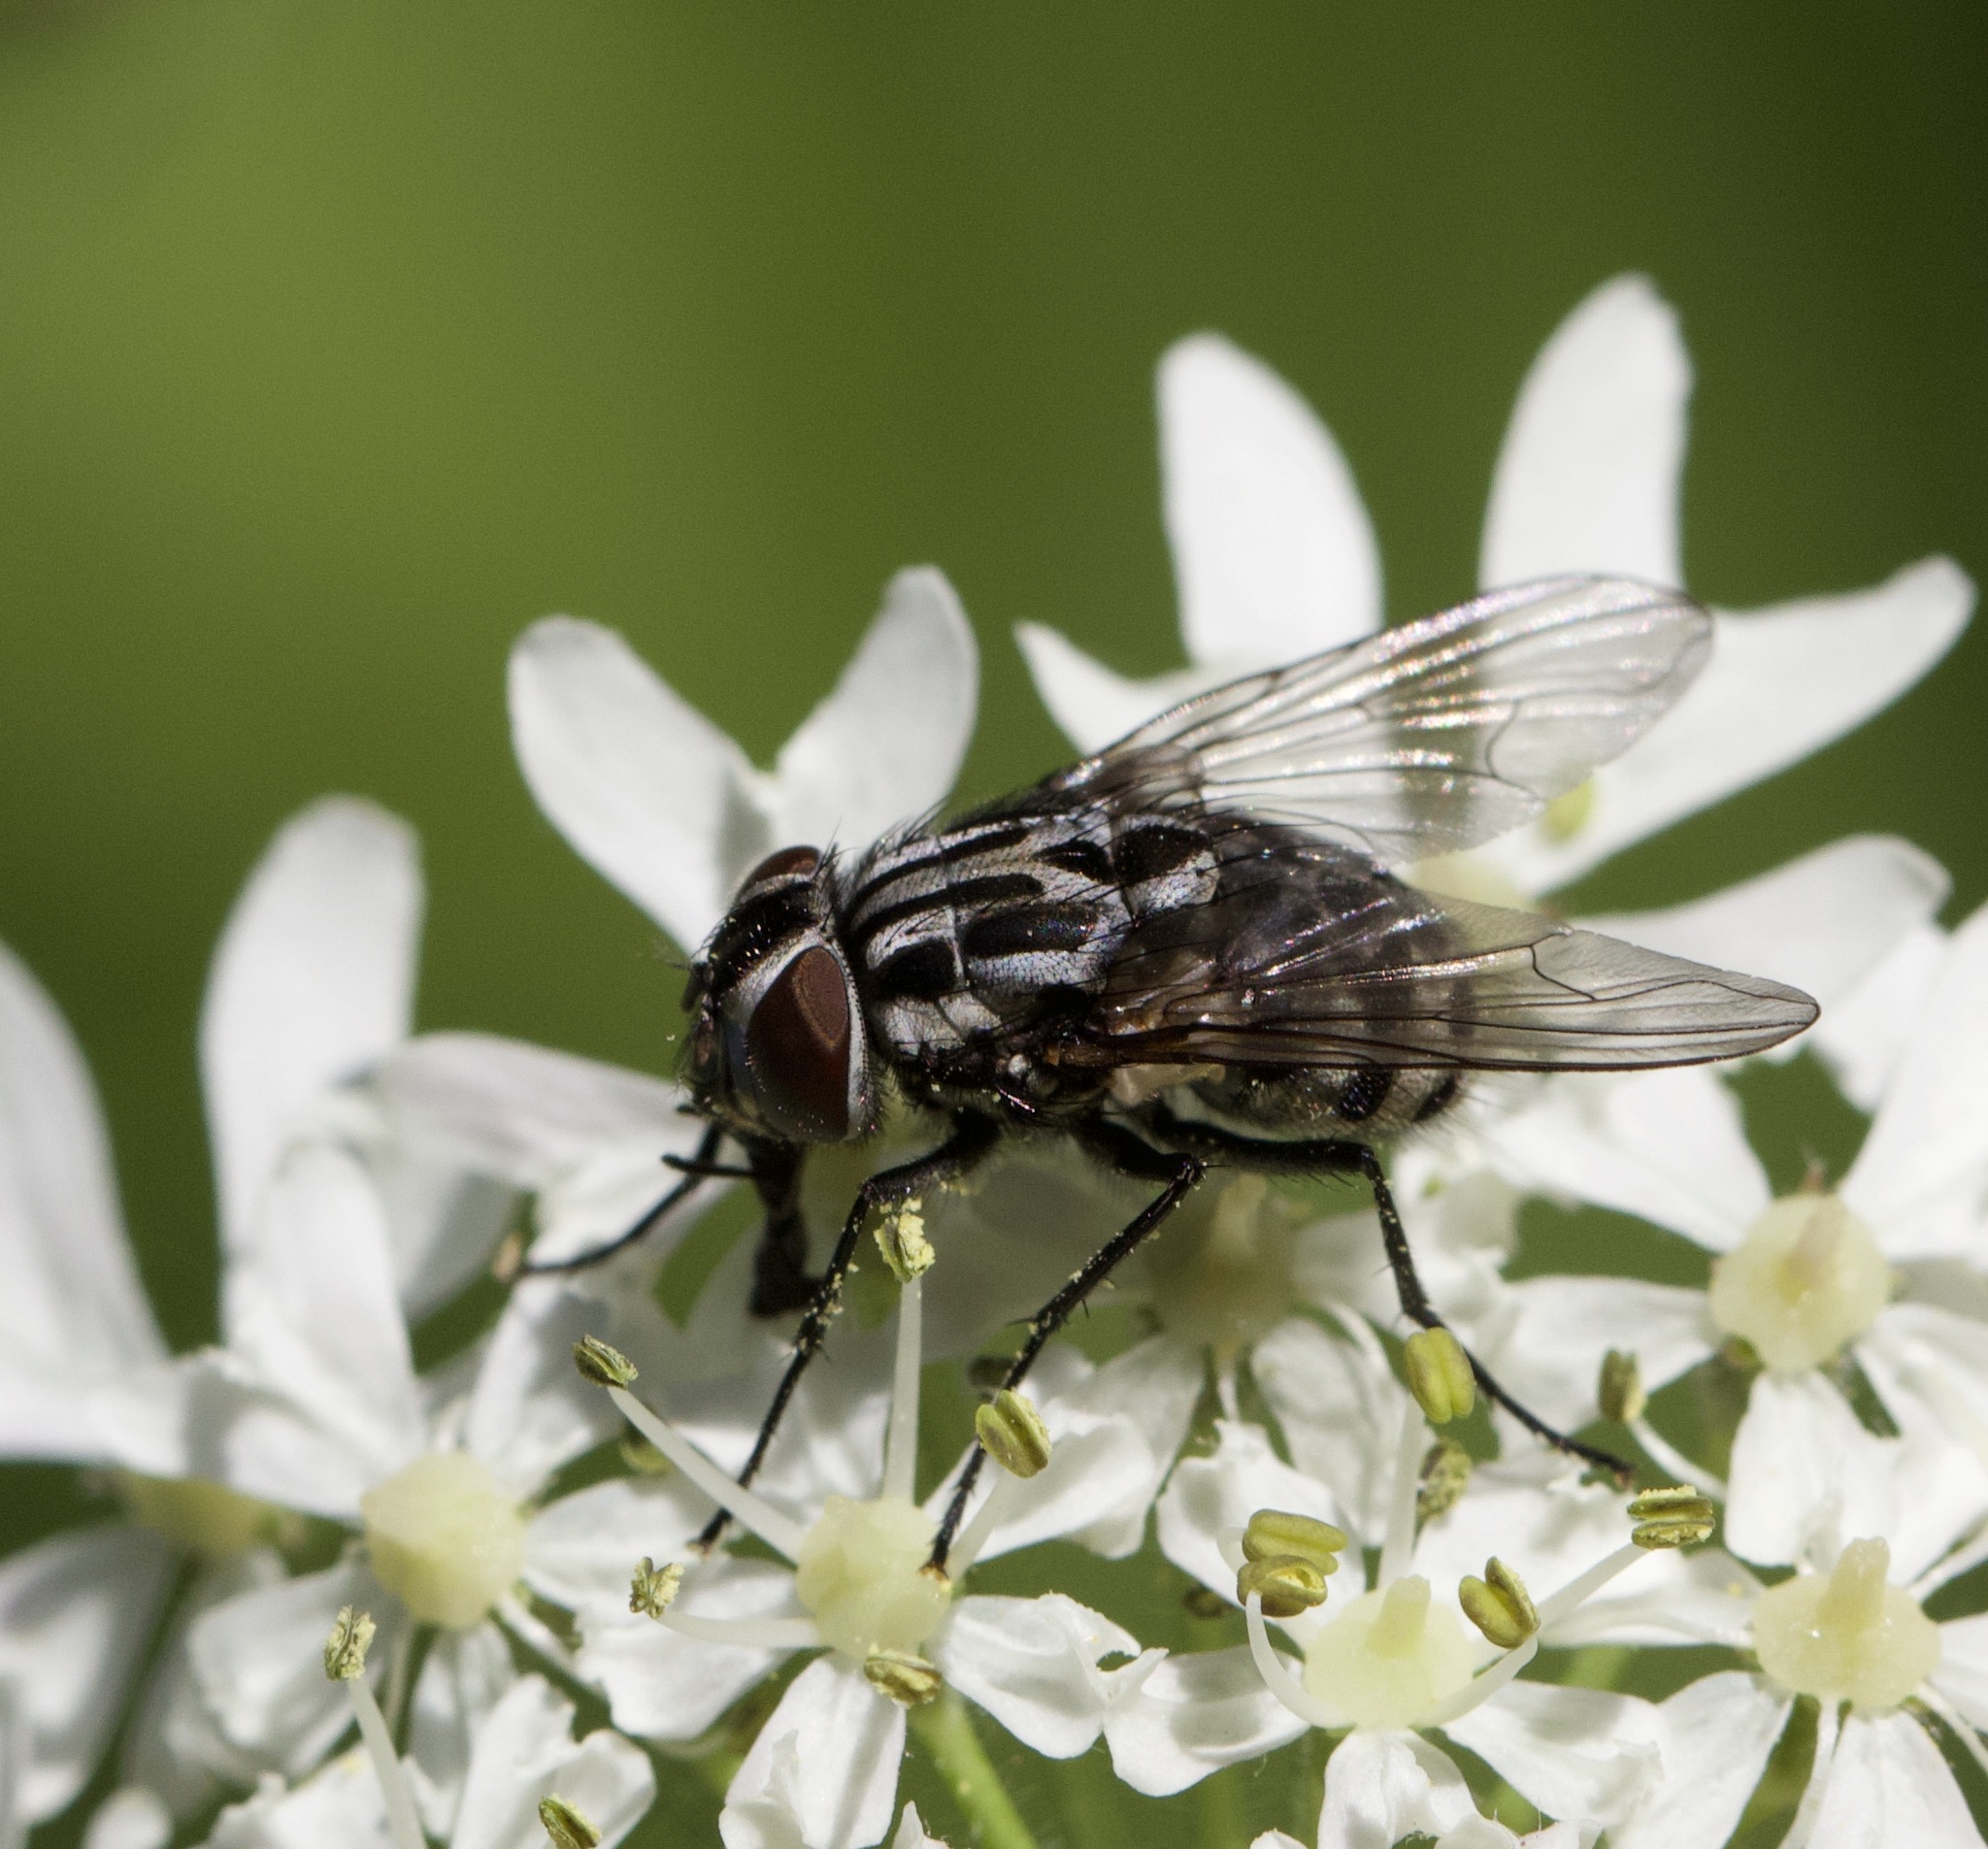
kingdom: Animalia
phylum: Arthropoda
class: Insecta
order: Diptera
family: Muscidae
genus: Graphomya
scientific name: Graphomya maculata
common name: Muscid fly
